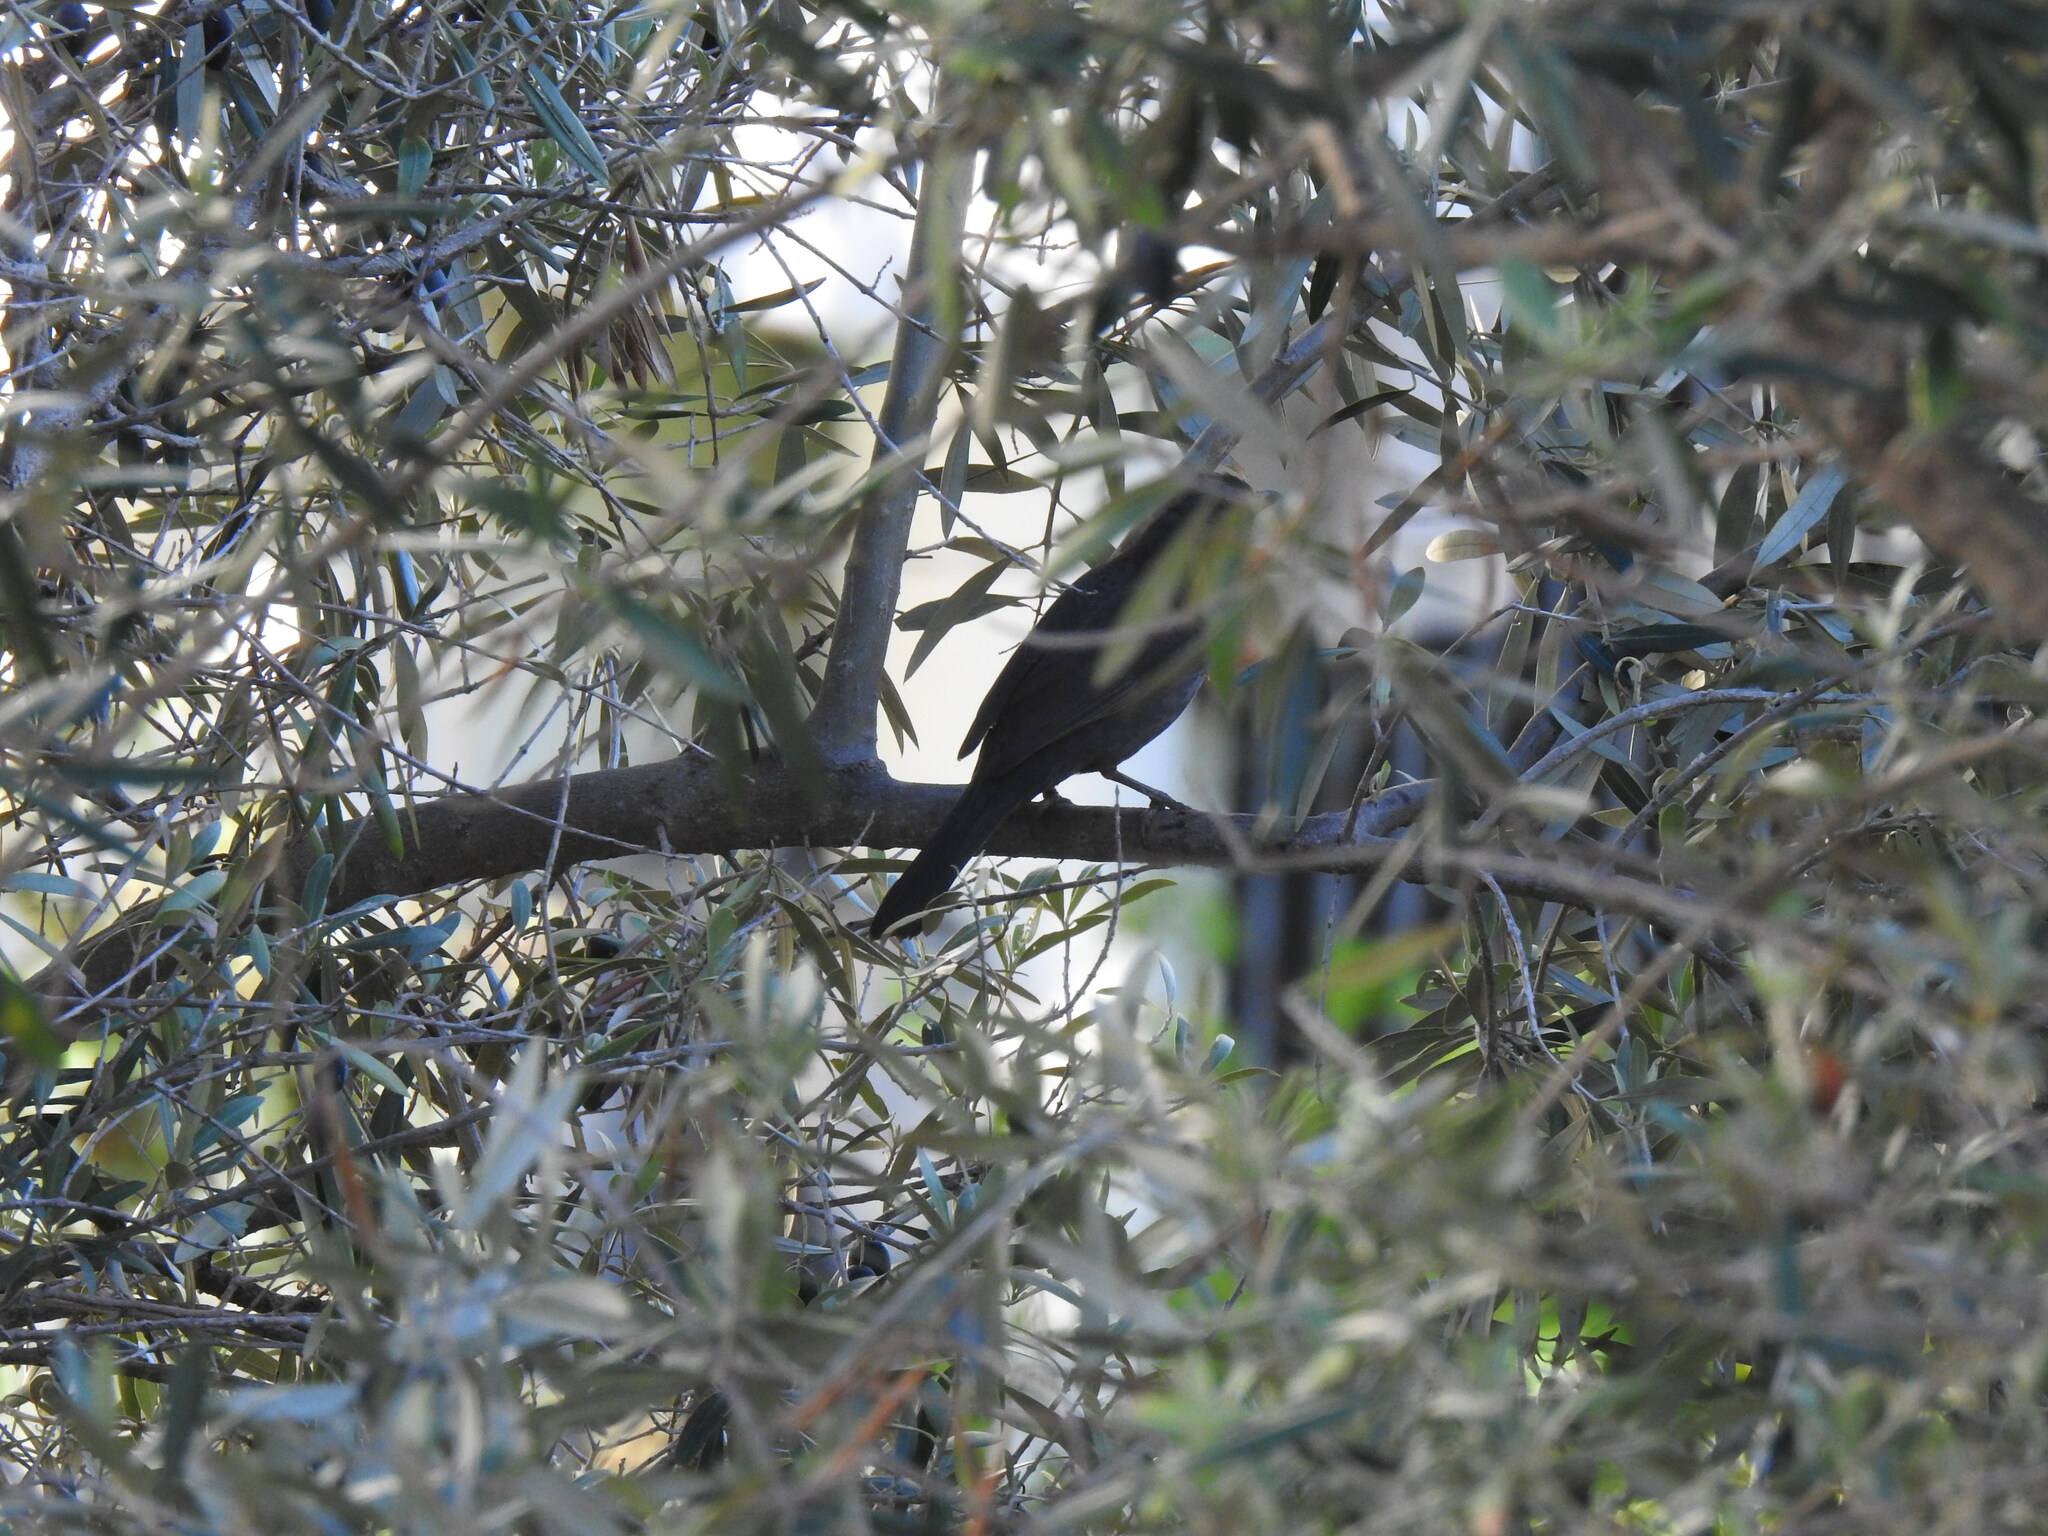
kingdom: Animalia
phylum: Chordata
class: Aves
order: Passeriformes
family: Turdidae
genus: Turdus
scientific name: Turdus merula
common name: Common blackbird
